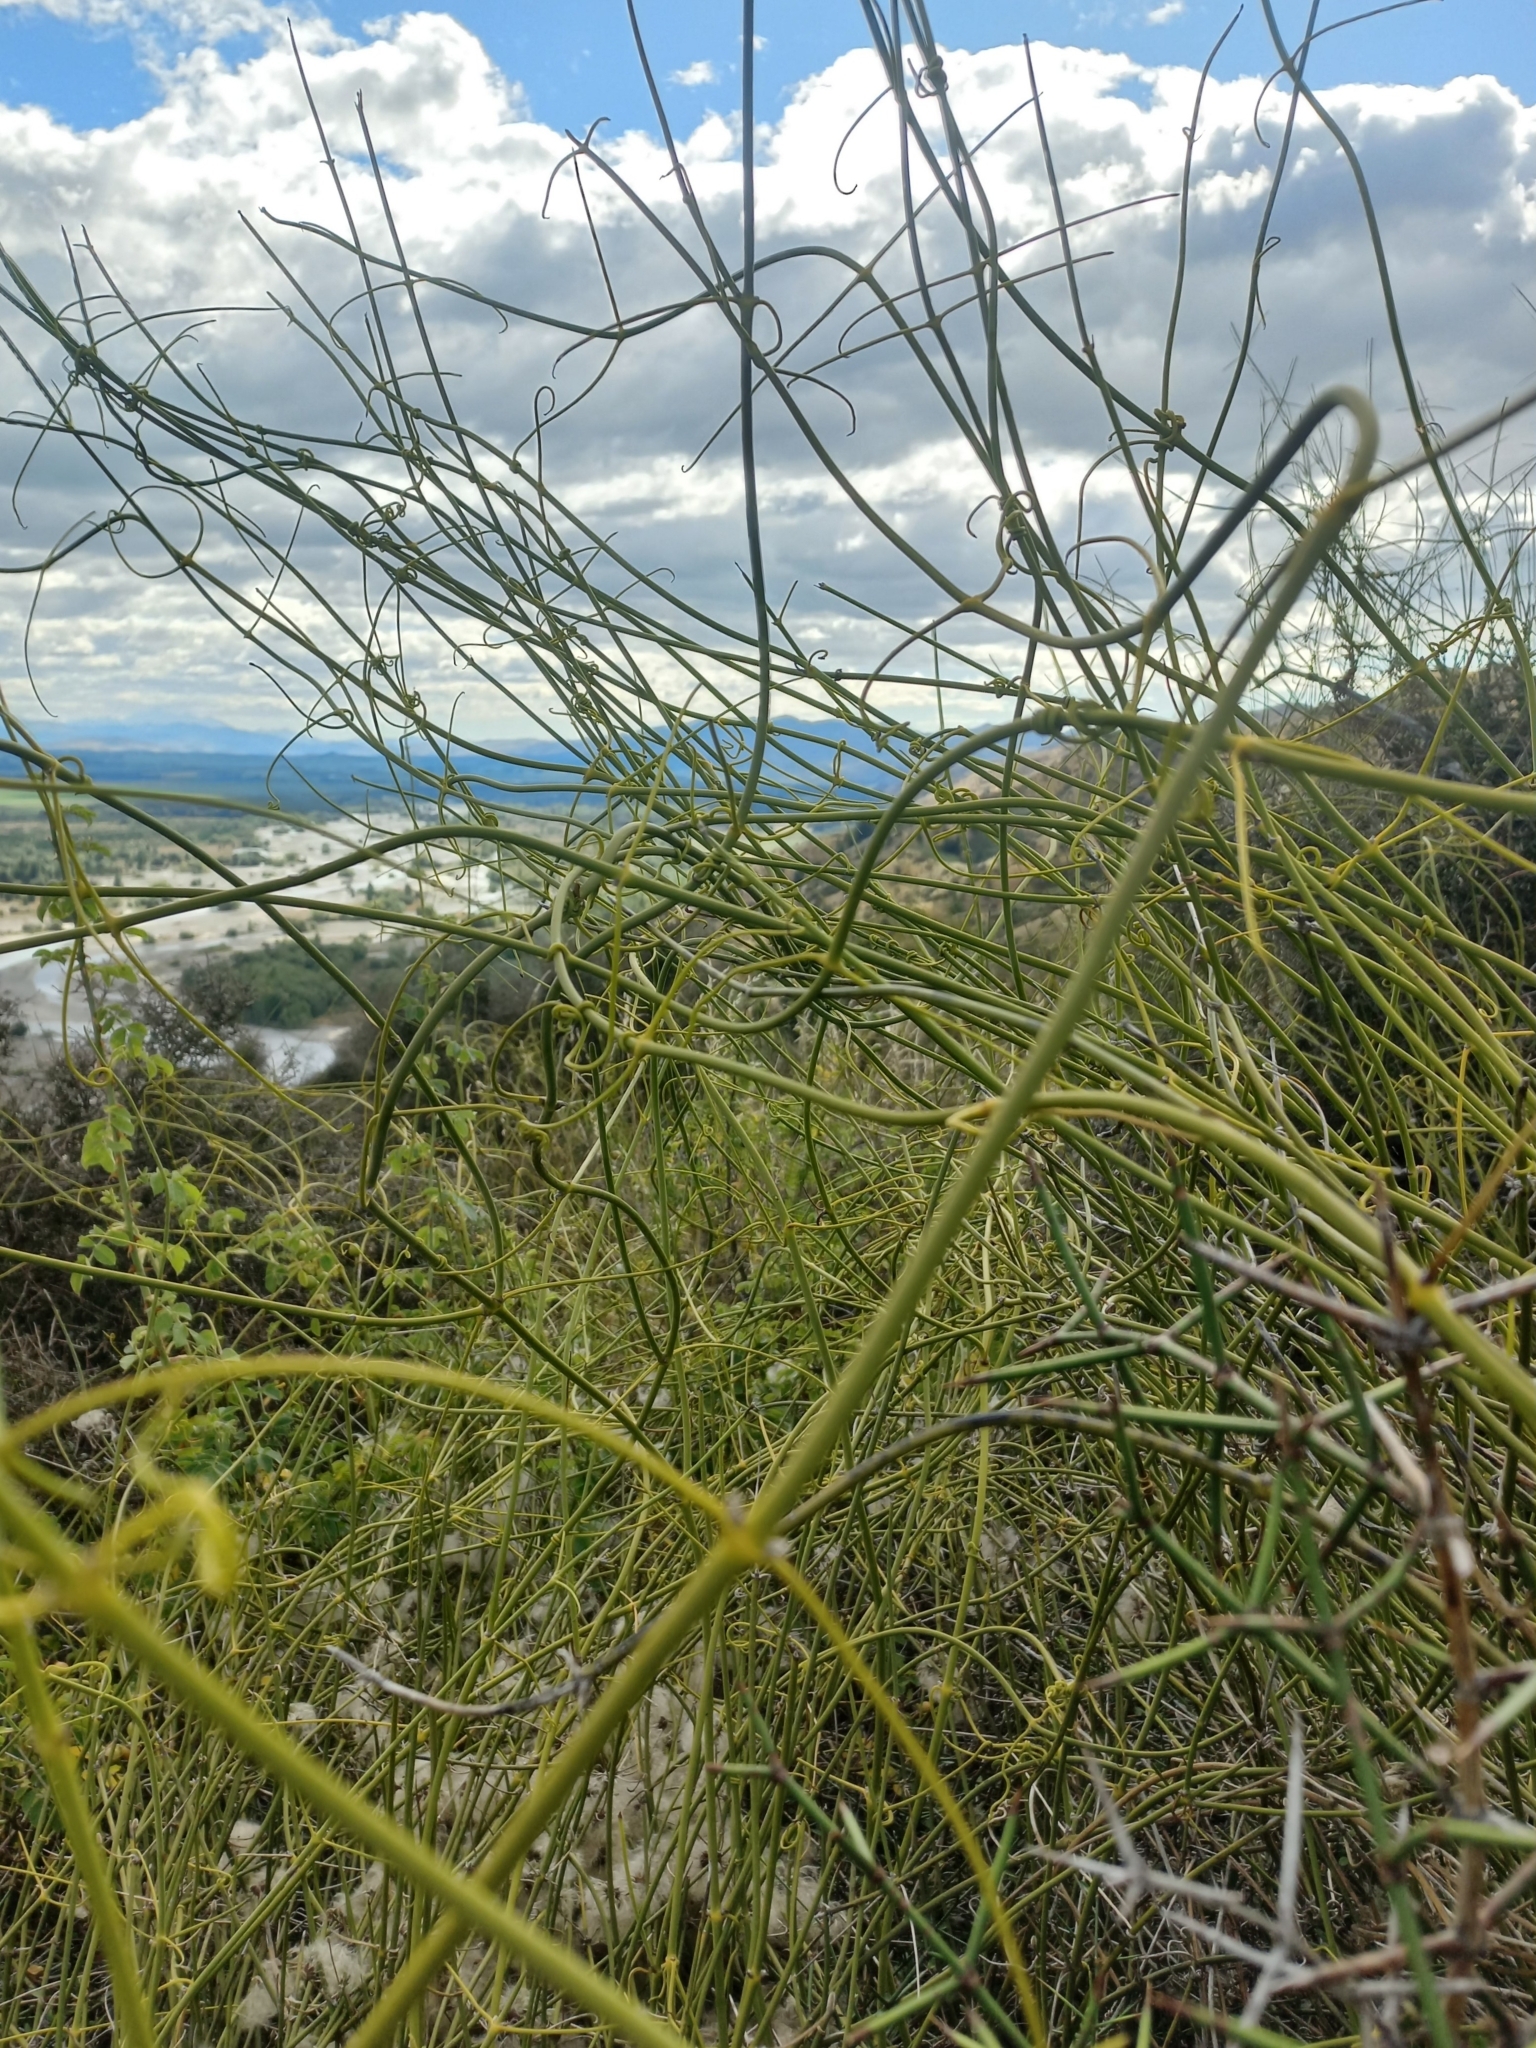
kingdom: Plantae
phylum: Tracheophyta
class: Magnoliopsida
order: Ranunculales
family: Ranunculaceae
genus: Clematis
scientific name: Clematis afoliata
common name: Rush-stem clematis
